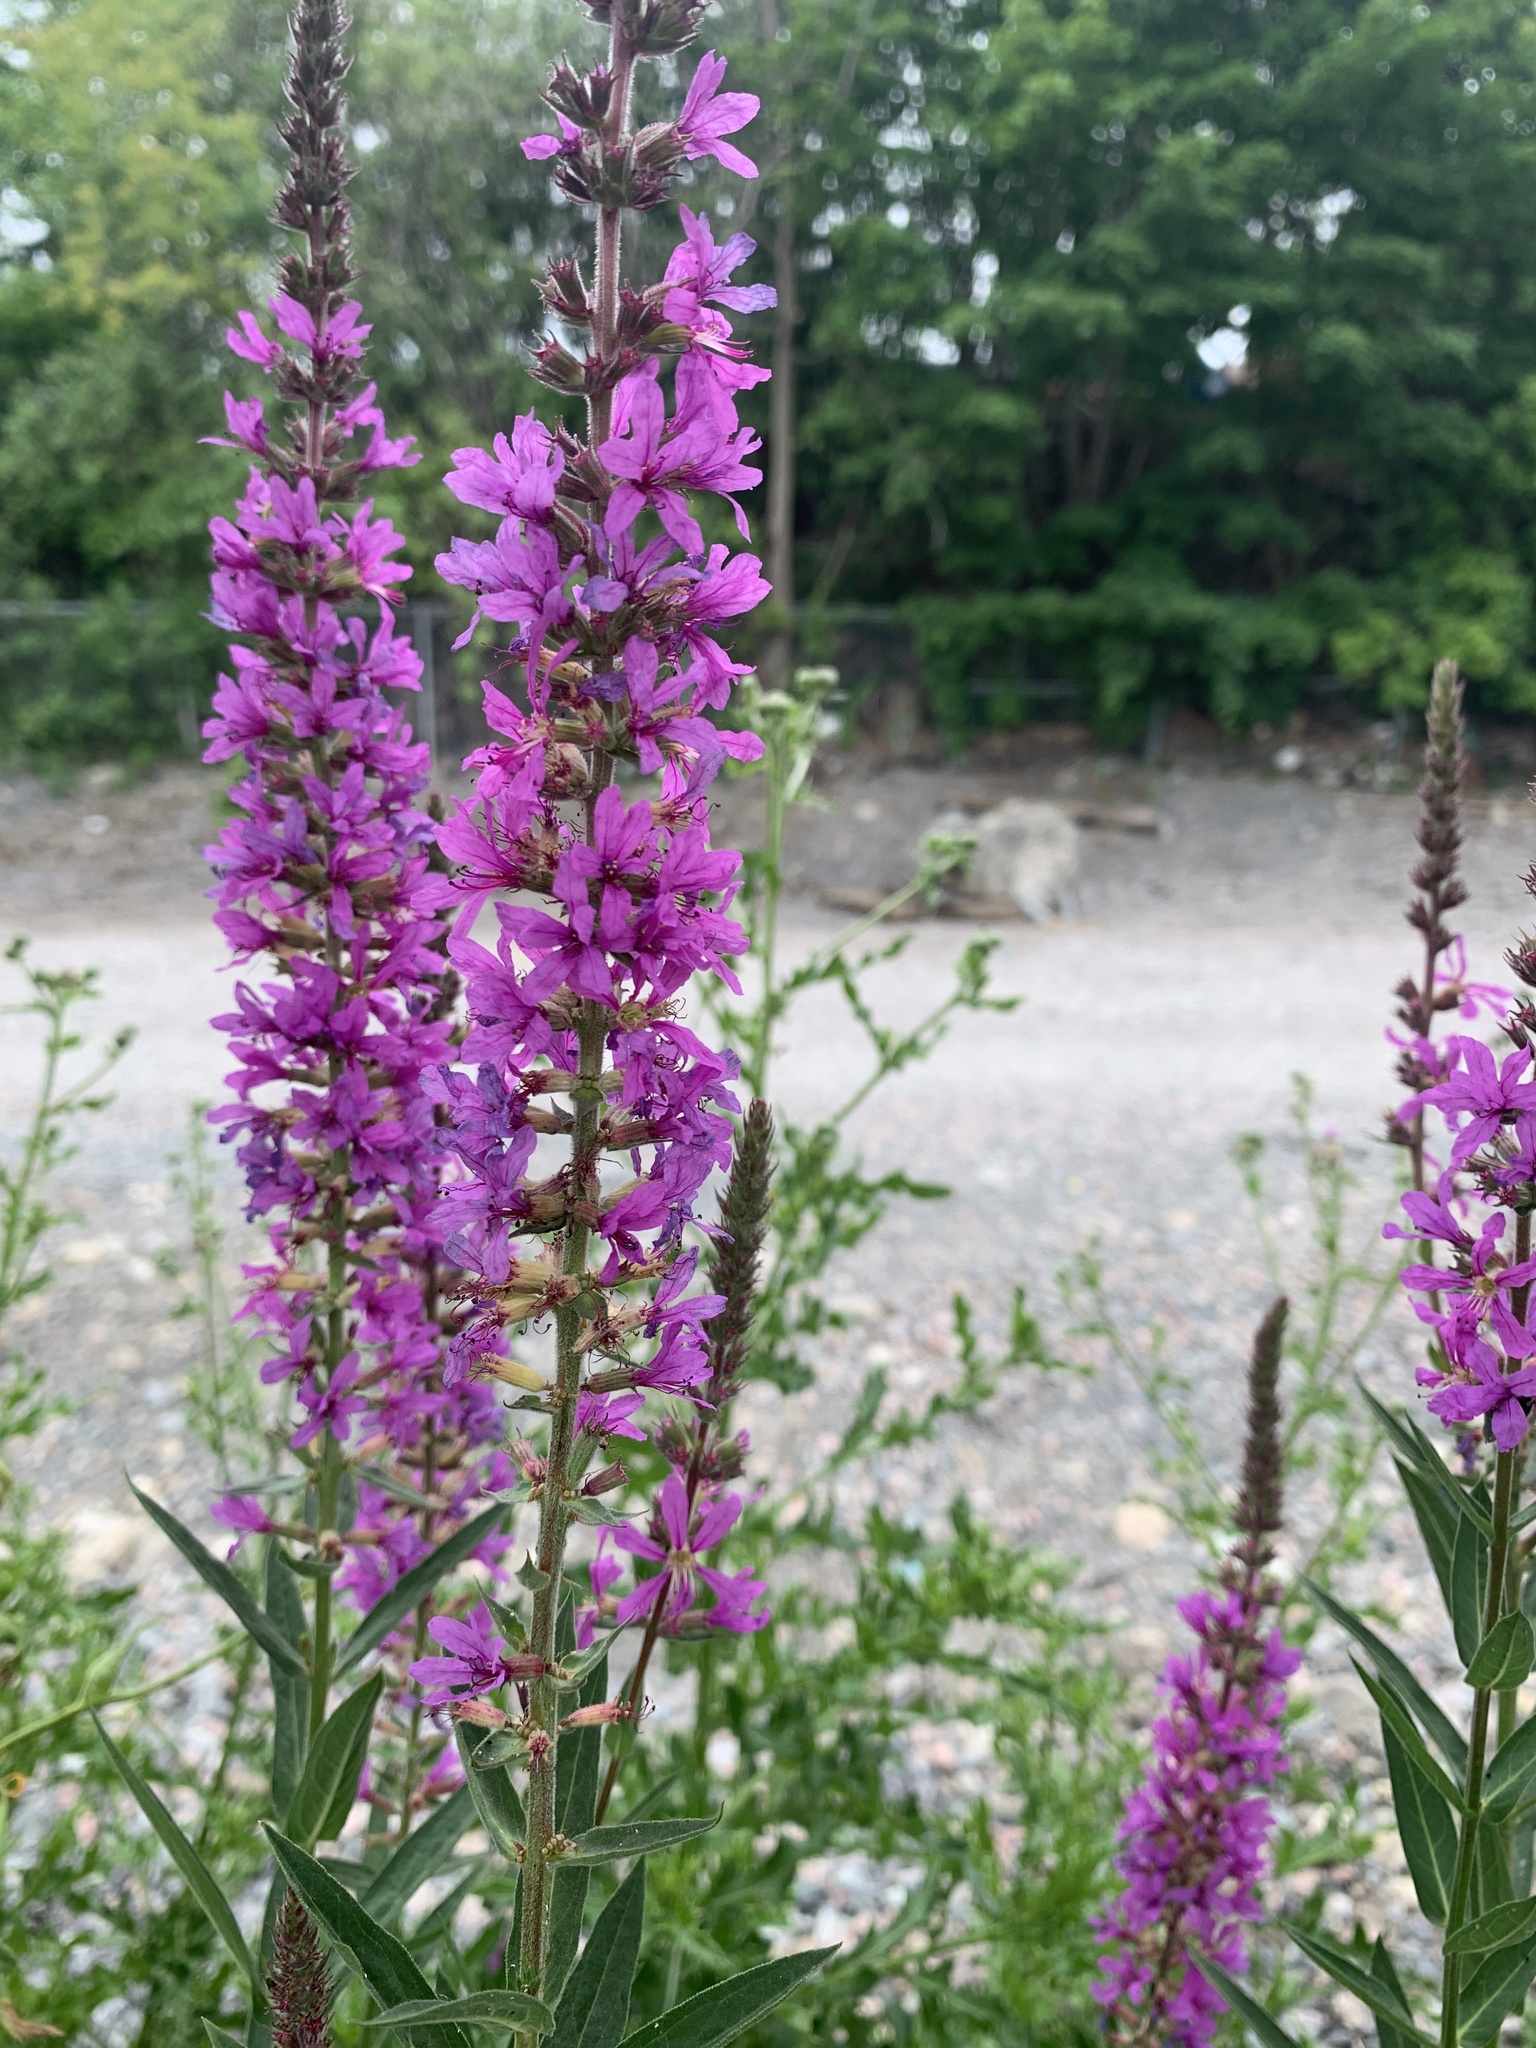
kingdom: Plantae
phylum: Tracheophyta
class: Magnoliopsida
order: Myrtales
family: Lythraceae
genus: Lythrum
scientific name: Lythrum salicaria
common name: Purple loosestrife
